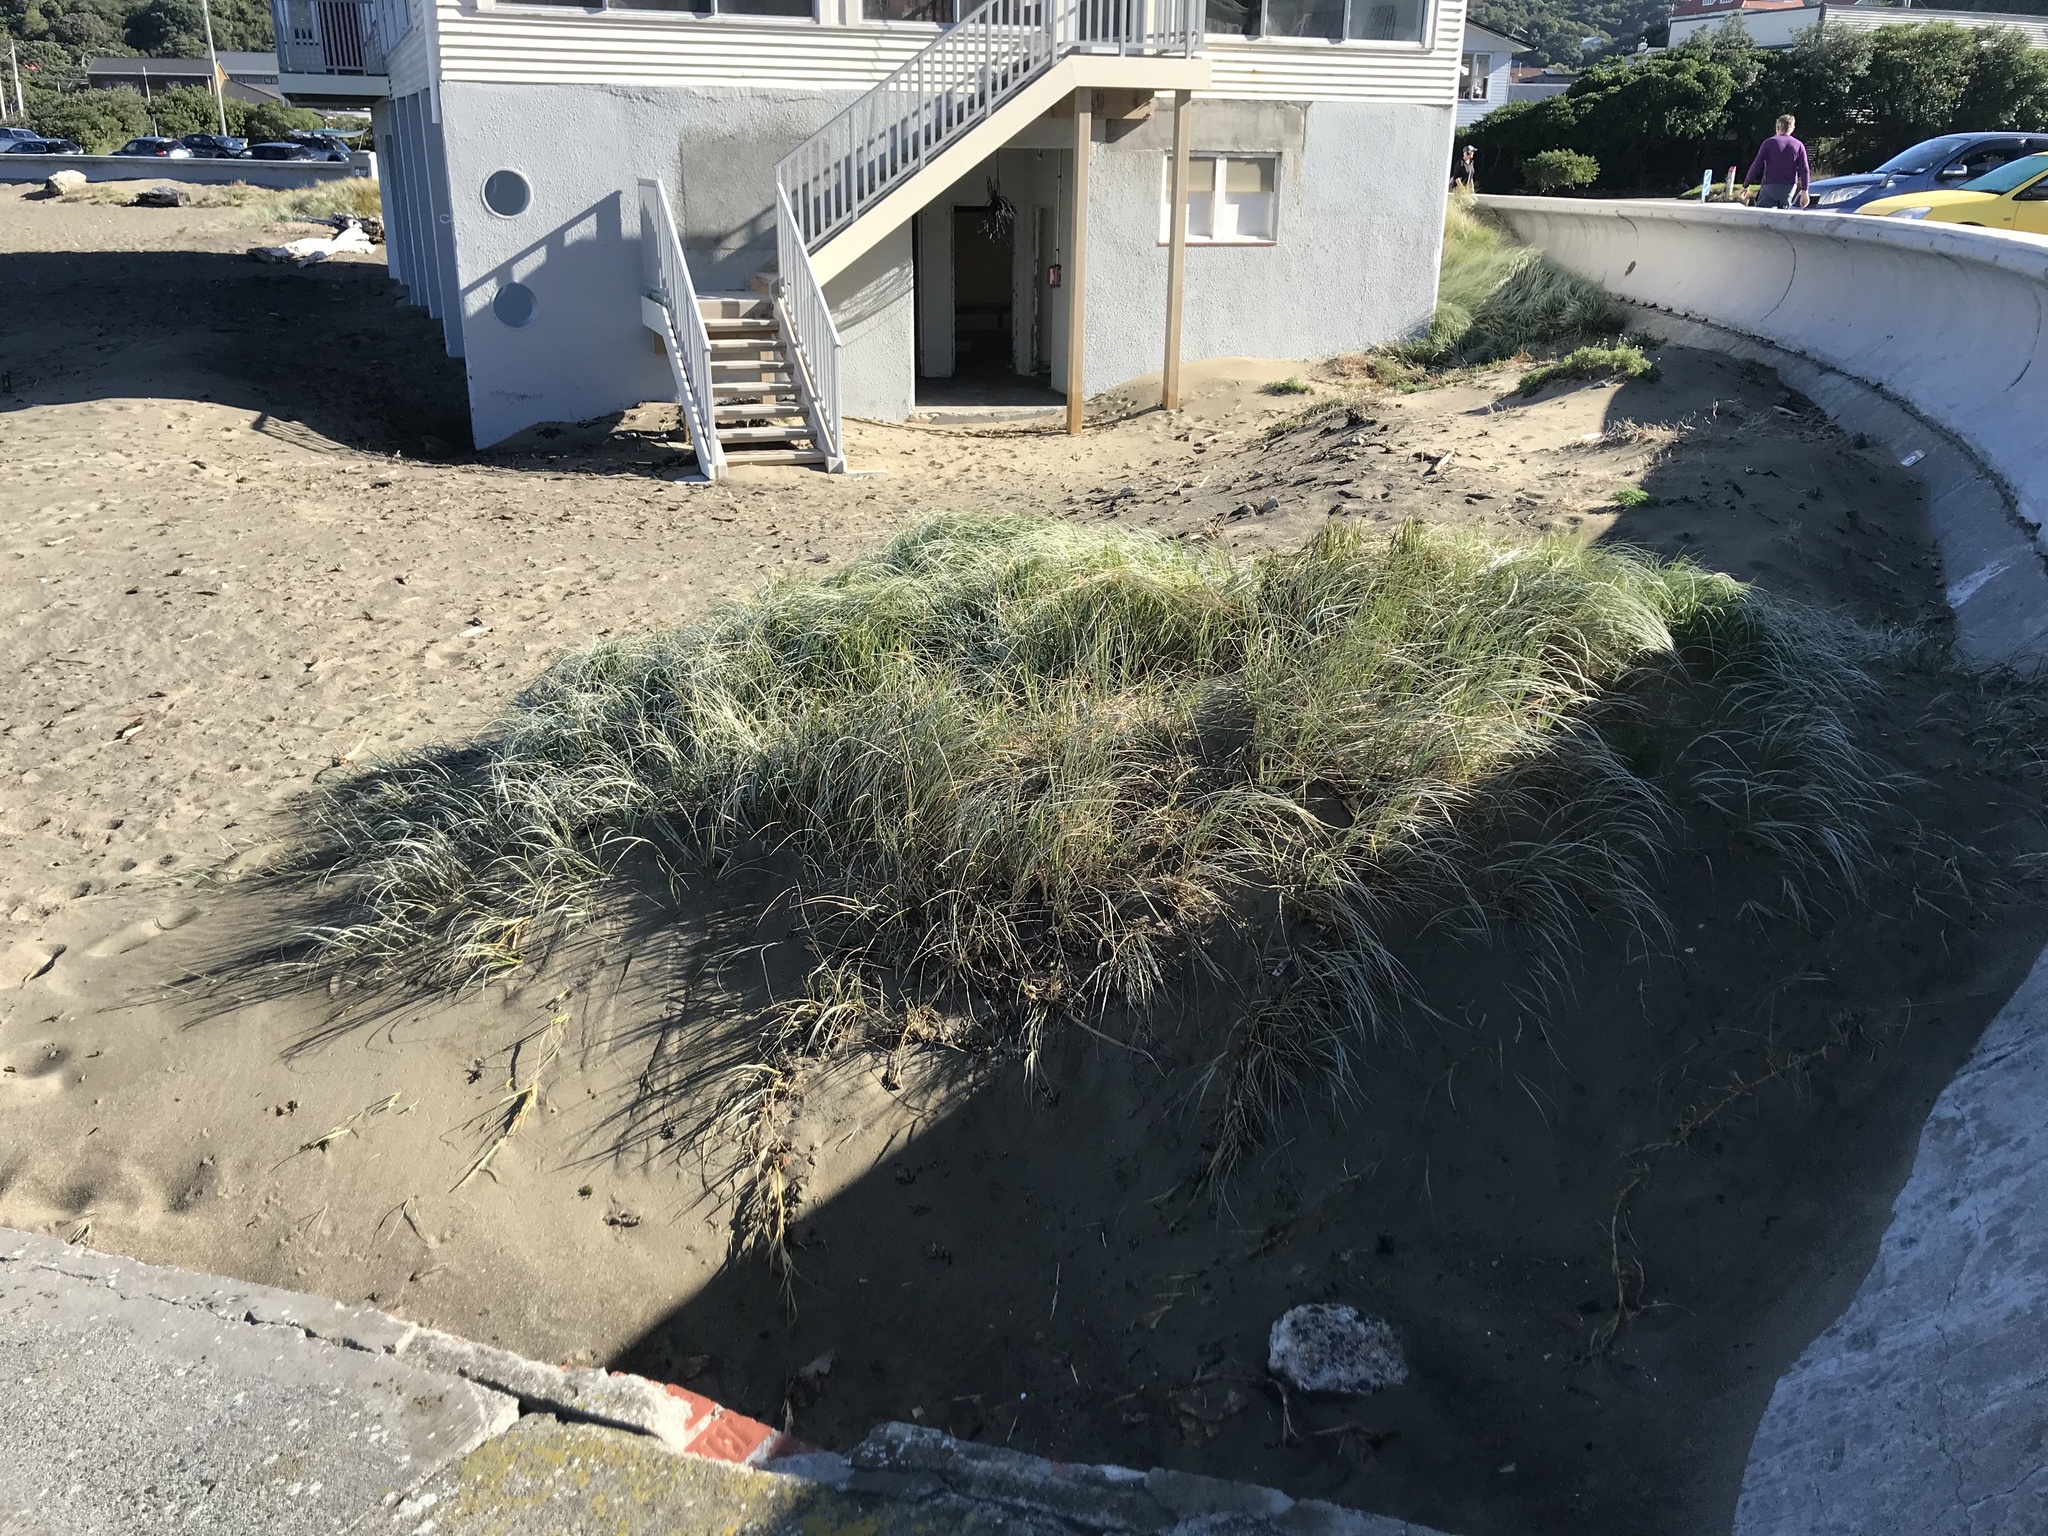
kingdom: Plantae
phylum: Tracheophyta
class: Liliopsida
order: Poales
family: Poaceae
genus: Spinifex
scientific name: Spinifex sericeus
